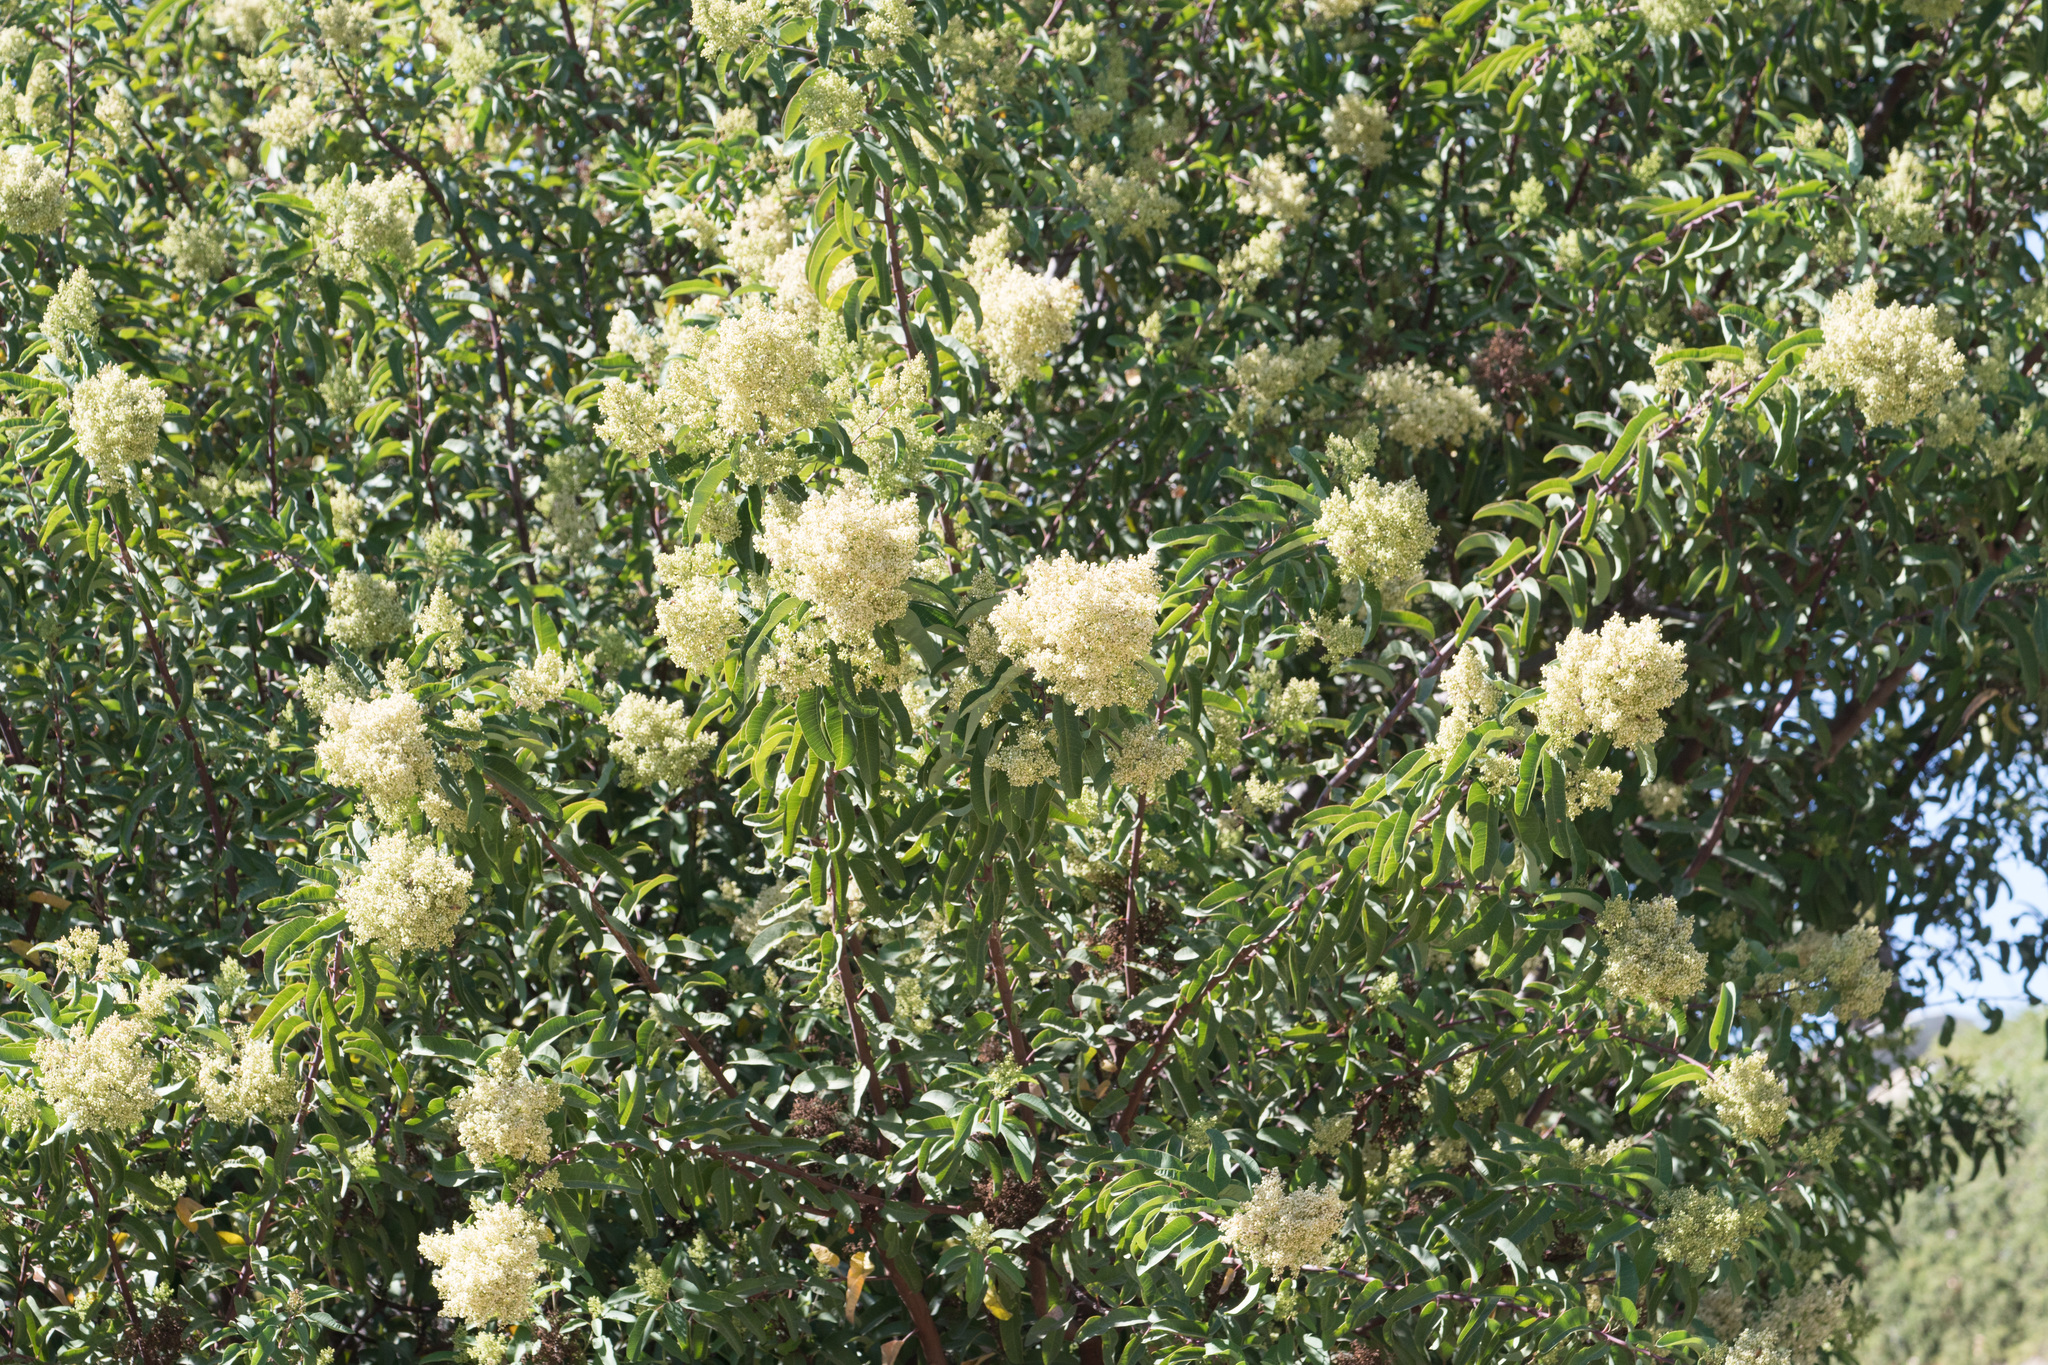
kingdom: Plantae
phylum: Tracheophyta
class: Magnoliopsida
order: Sapindales
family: Anacardiaceae
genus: Malosma
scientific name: Malosma laurina
